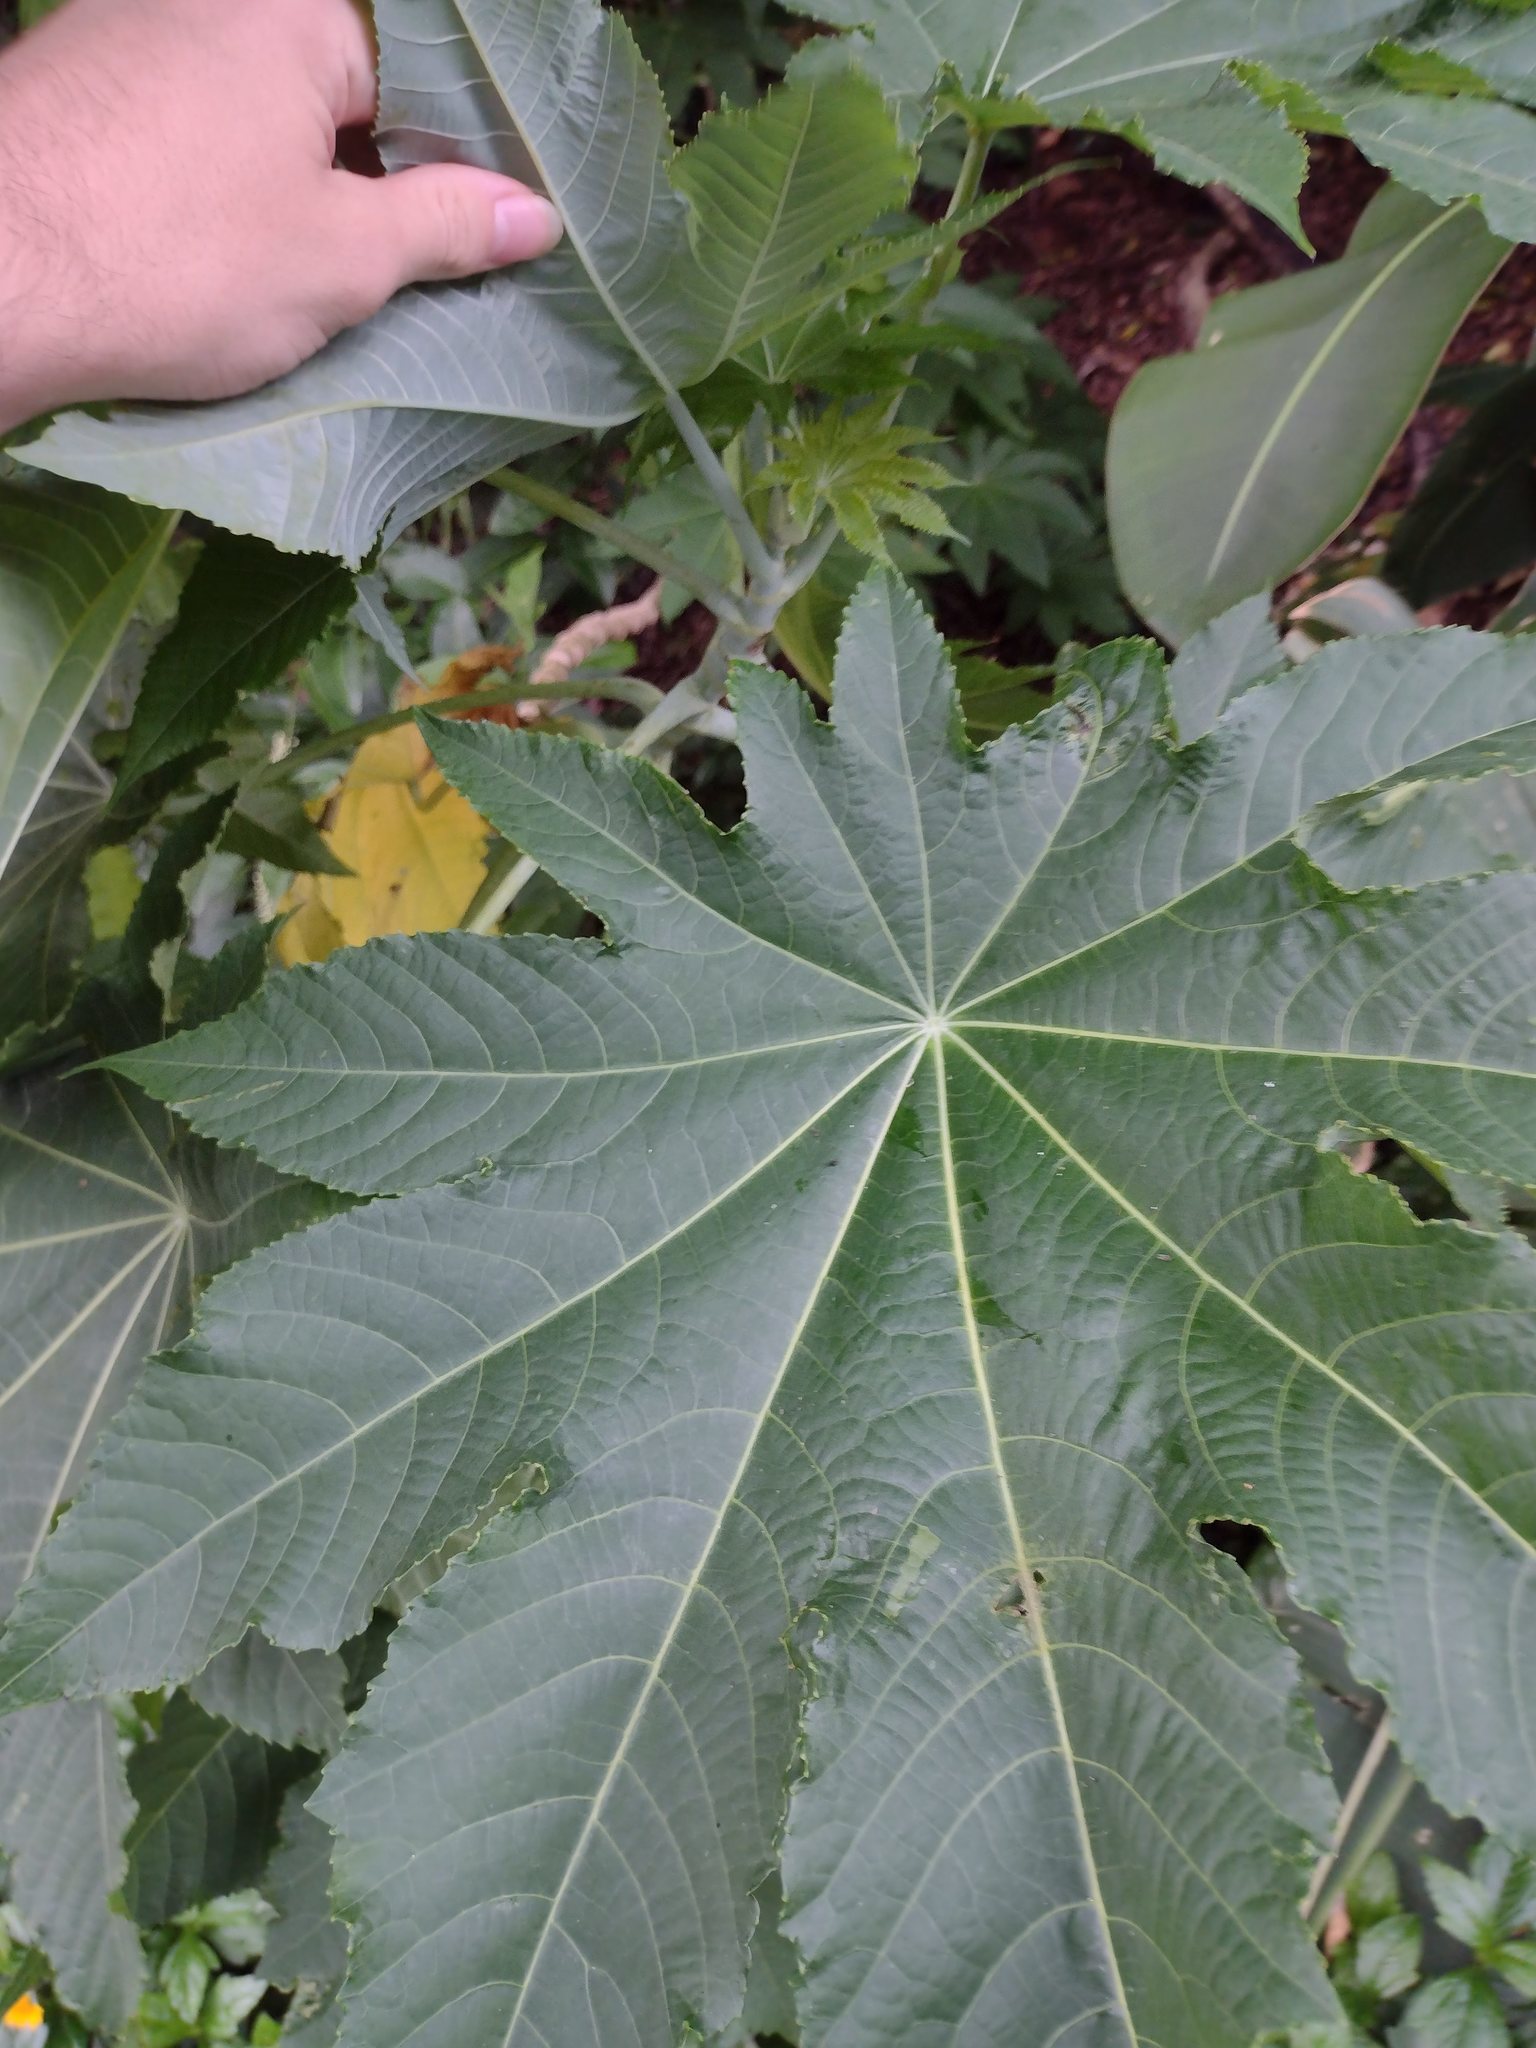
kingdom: Plantae
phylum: Tracheophyta
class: Magnoliopsida
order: Malpighiales
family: Euphorbiaceae
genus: Ricinus
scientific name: Ricinus communis
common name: Castor-oil-plant
